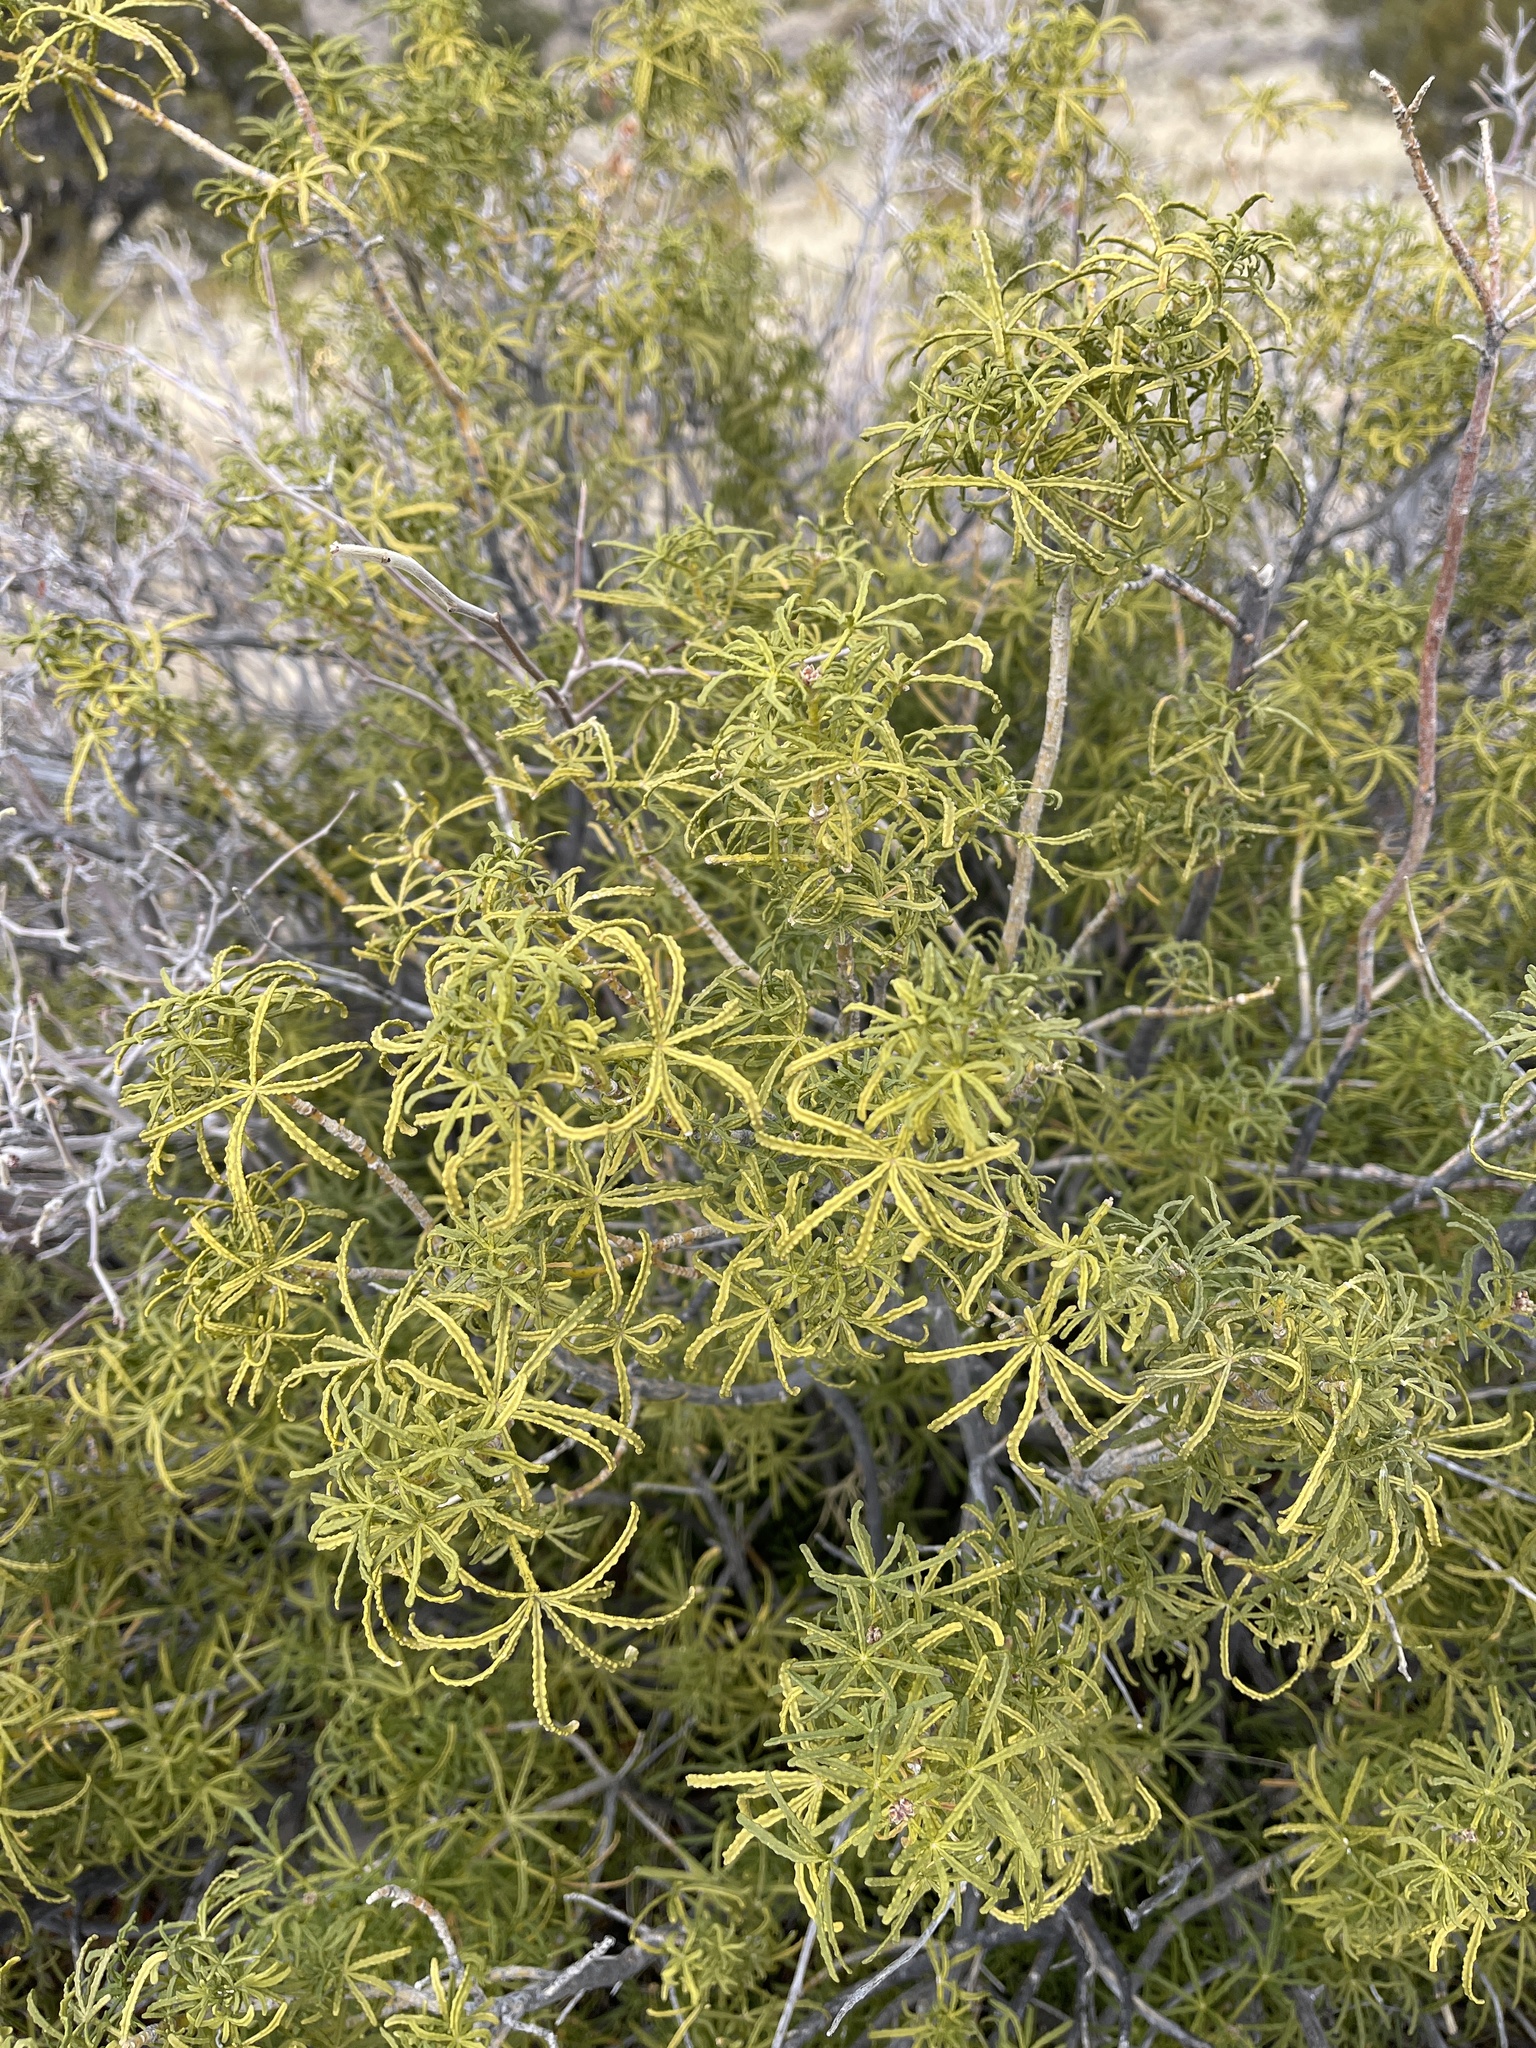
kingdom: Plantae
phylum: Tracheophyta
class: Magnoliopsida
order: Sapindales
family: Rutaceae
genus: Choisya
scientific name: Choisya dumosa
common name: Mexican-orange
